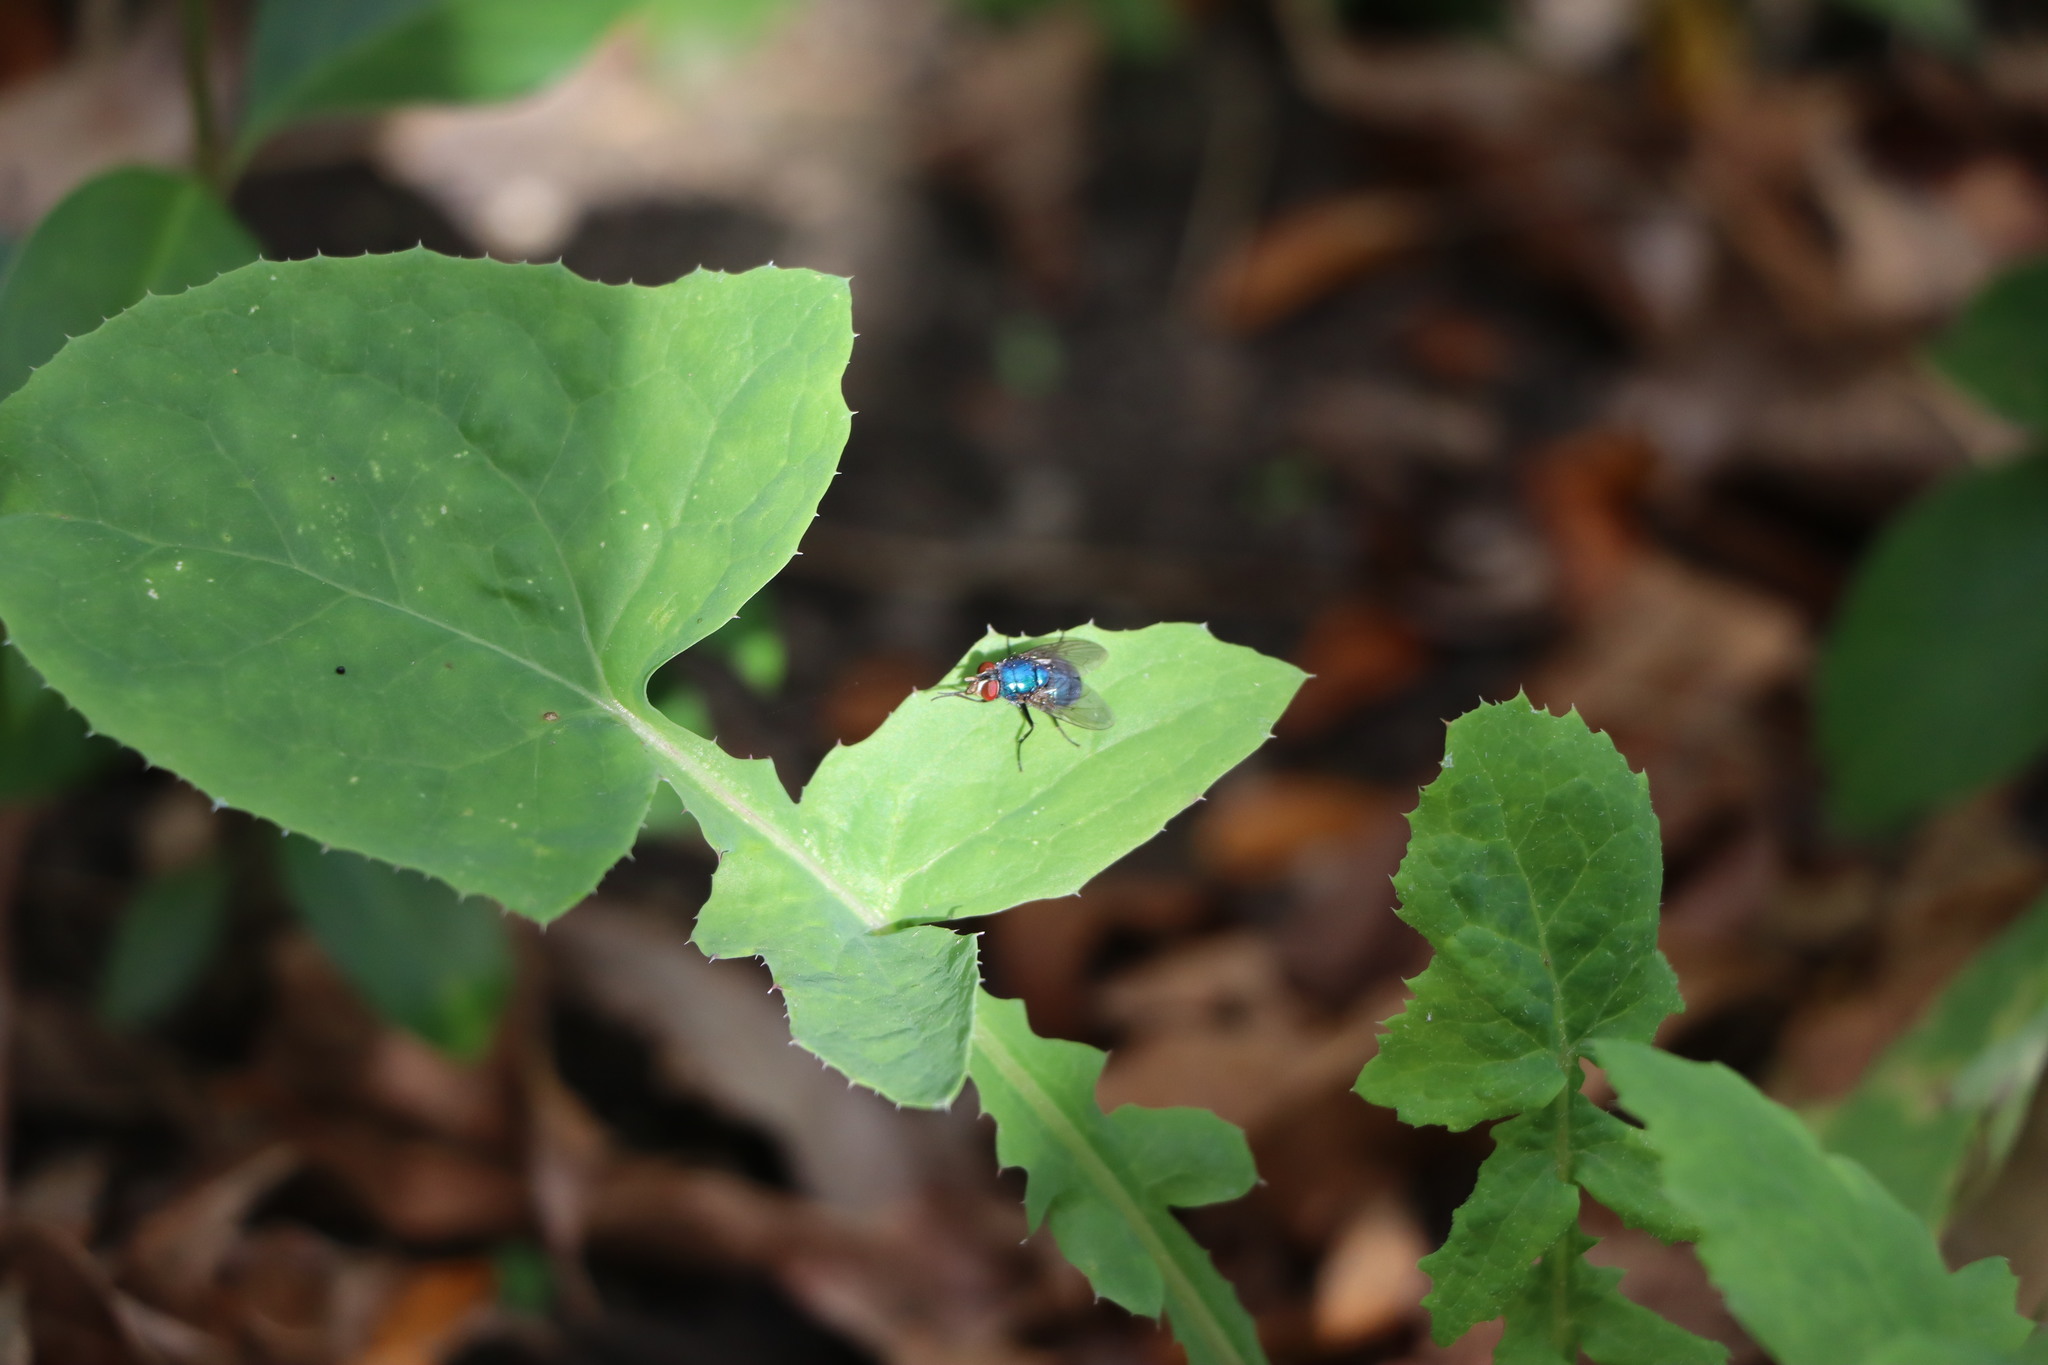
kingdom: Animalia
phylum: Arthropoda
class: Insecta
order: Diptera
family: Calliphoridae
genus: Lucilia
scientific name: Lucilia eximia
